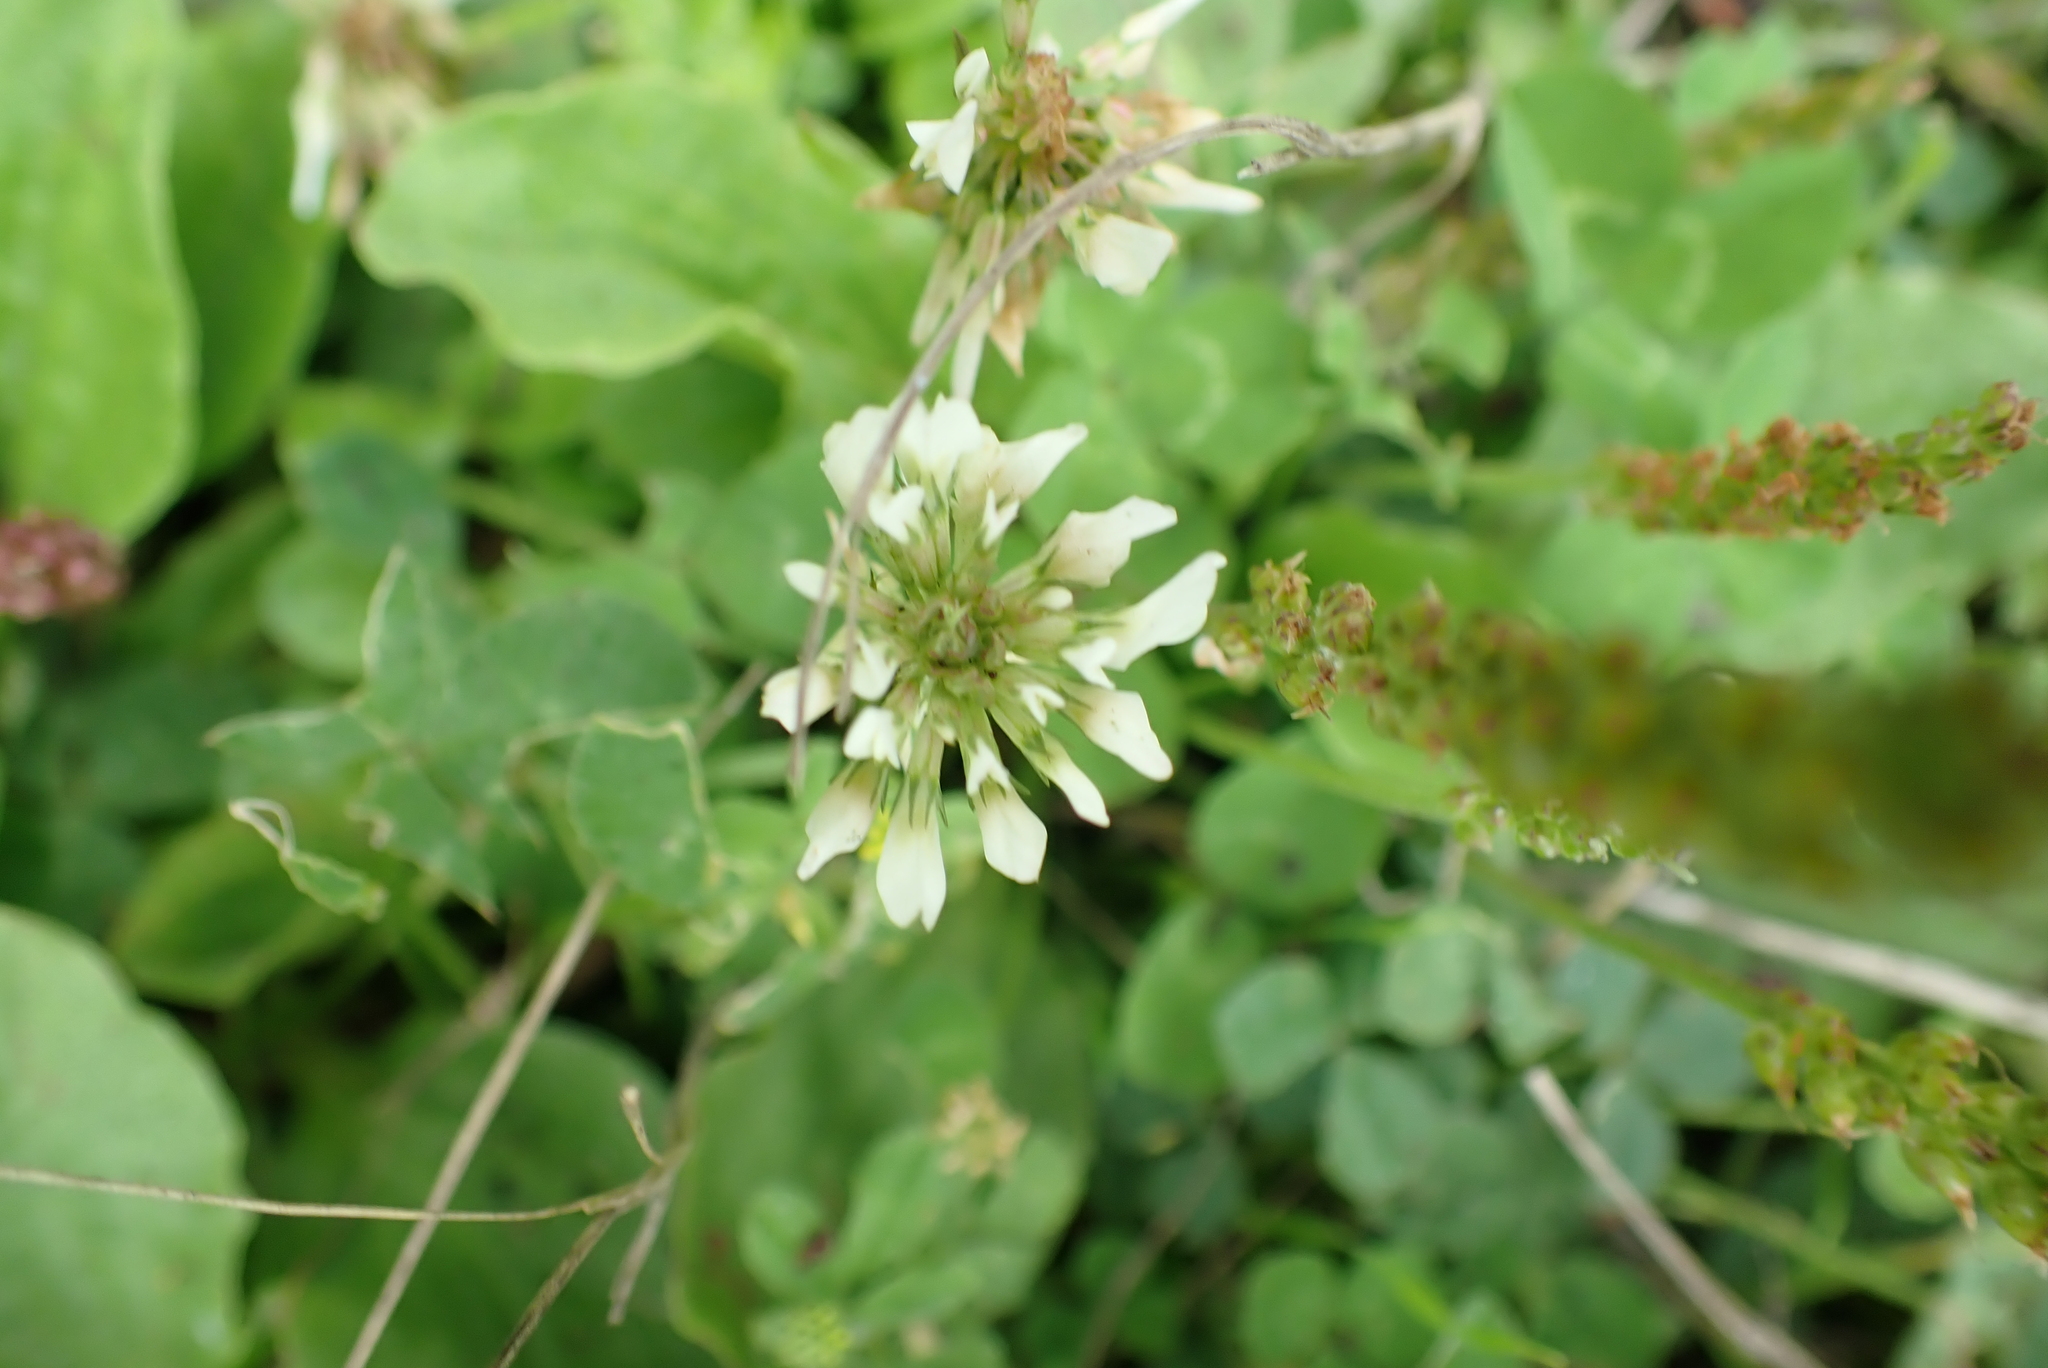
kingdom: Plantae
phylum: Tracheophyta
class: Magnoliopsida
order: Fabales
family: Fabaceae
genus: Trifolium
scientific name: Trifolium repens
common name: White clover
